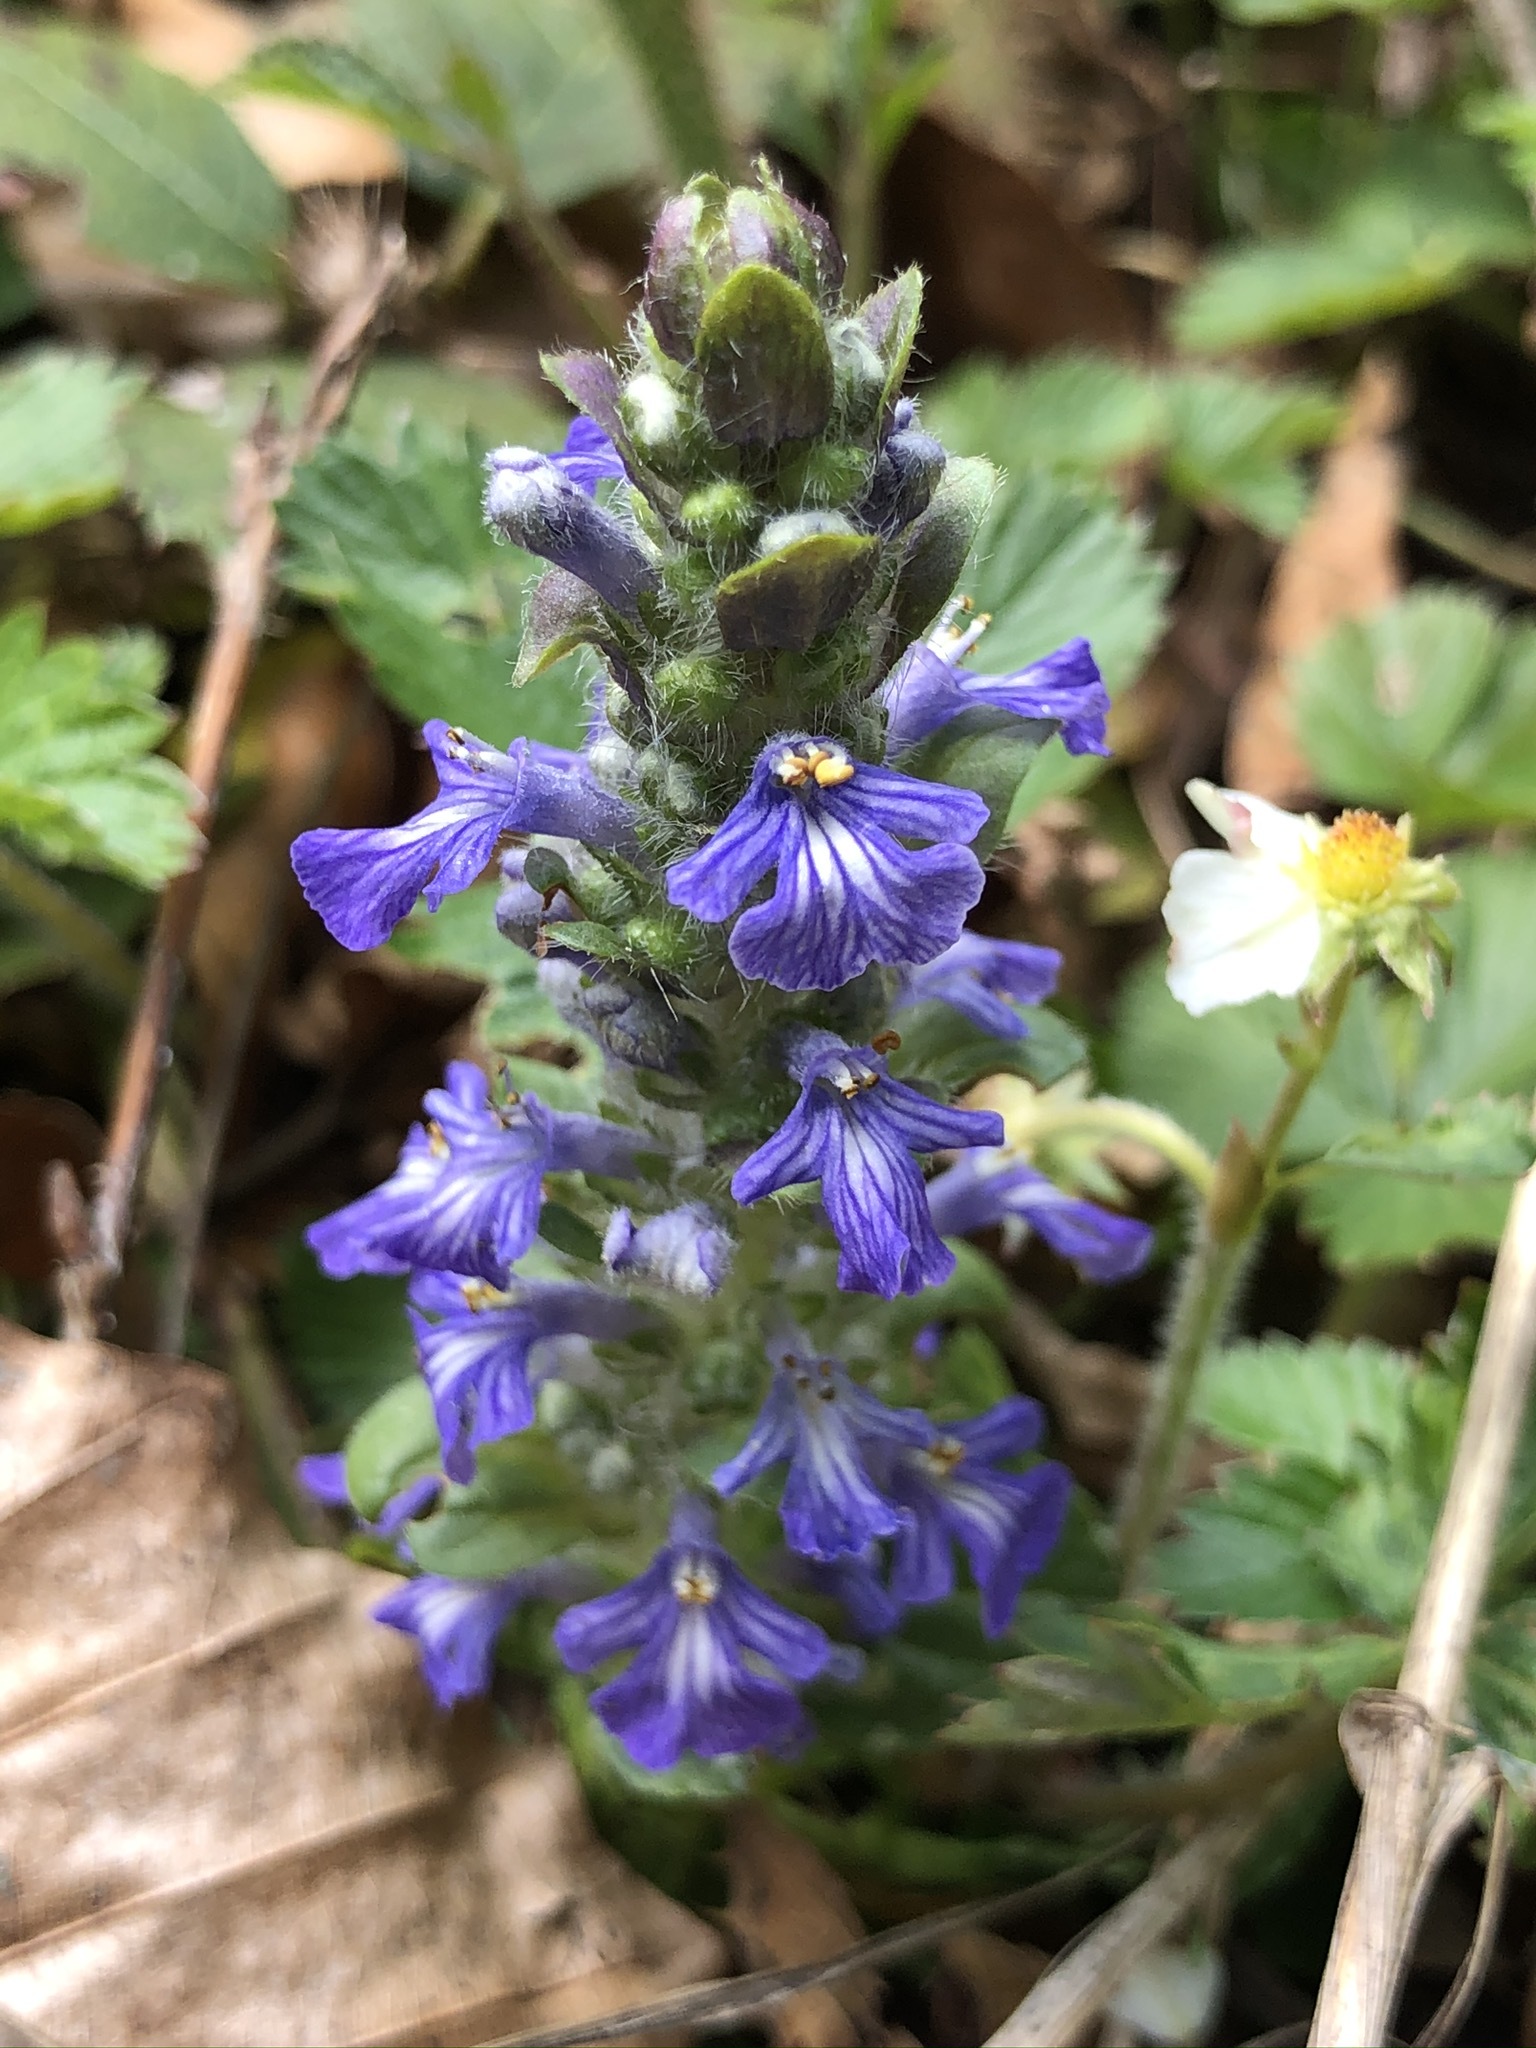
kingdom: Plantae
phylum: Tracheophyta
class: Magnoliopsida
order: Lamiales
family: Lamiaceae
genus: Ajuga
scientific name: Ajuga reptans
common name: Bugle
